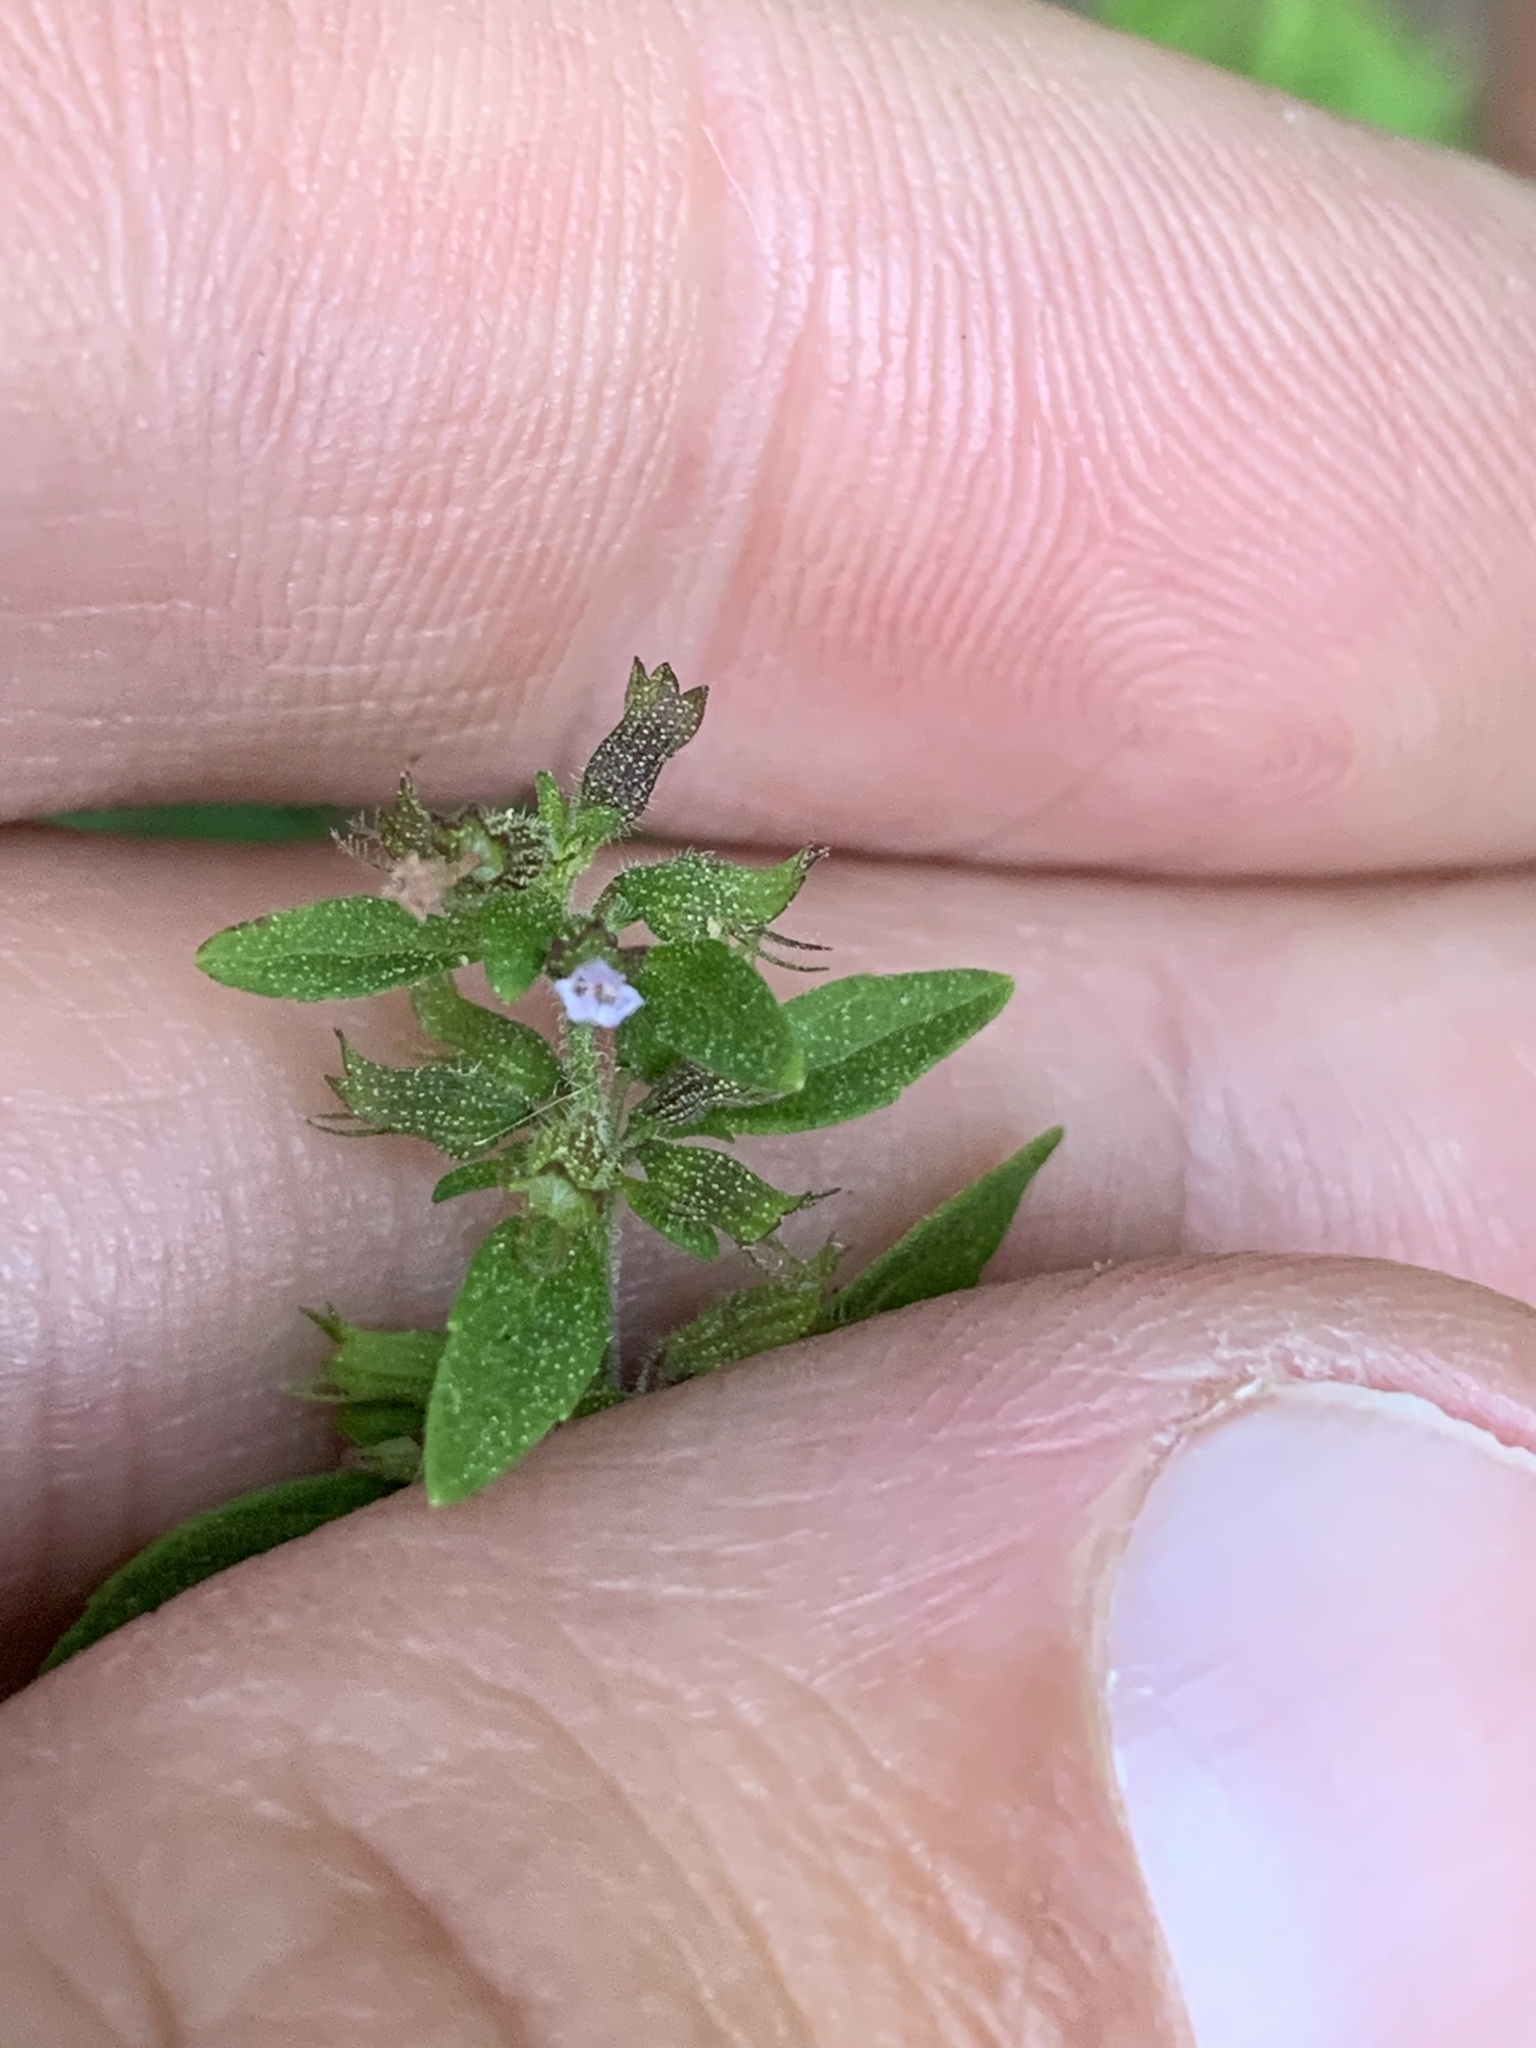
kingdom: Plantae
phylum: Tracheophyta
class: Magnoliopsida
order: Lamiales
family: Lamiaceae
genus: Hedeoma
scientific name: Hedeoma pulegioides
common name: American false pennyroyal
